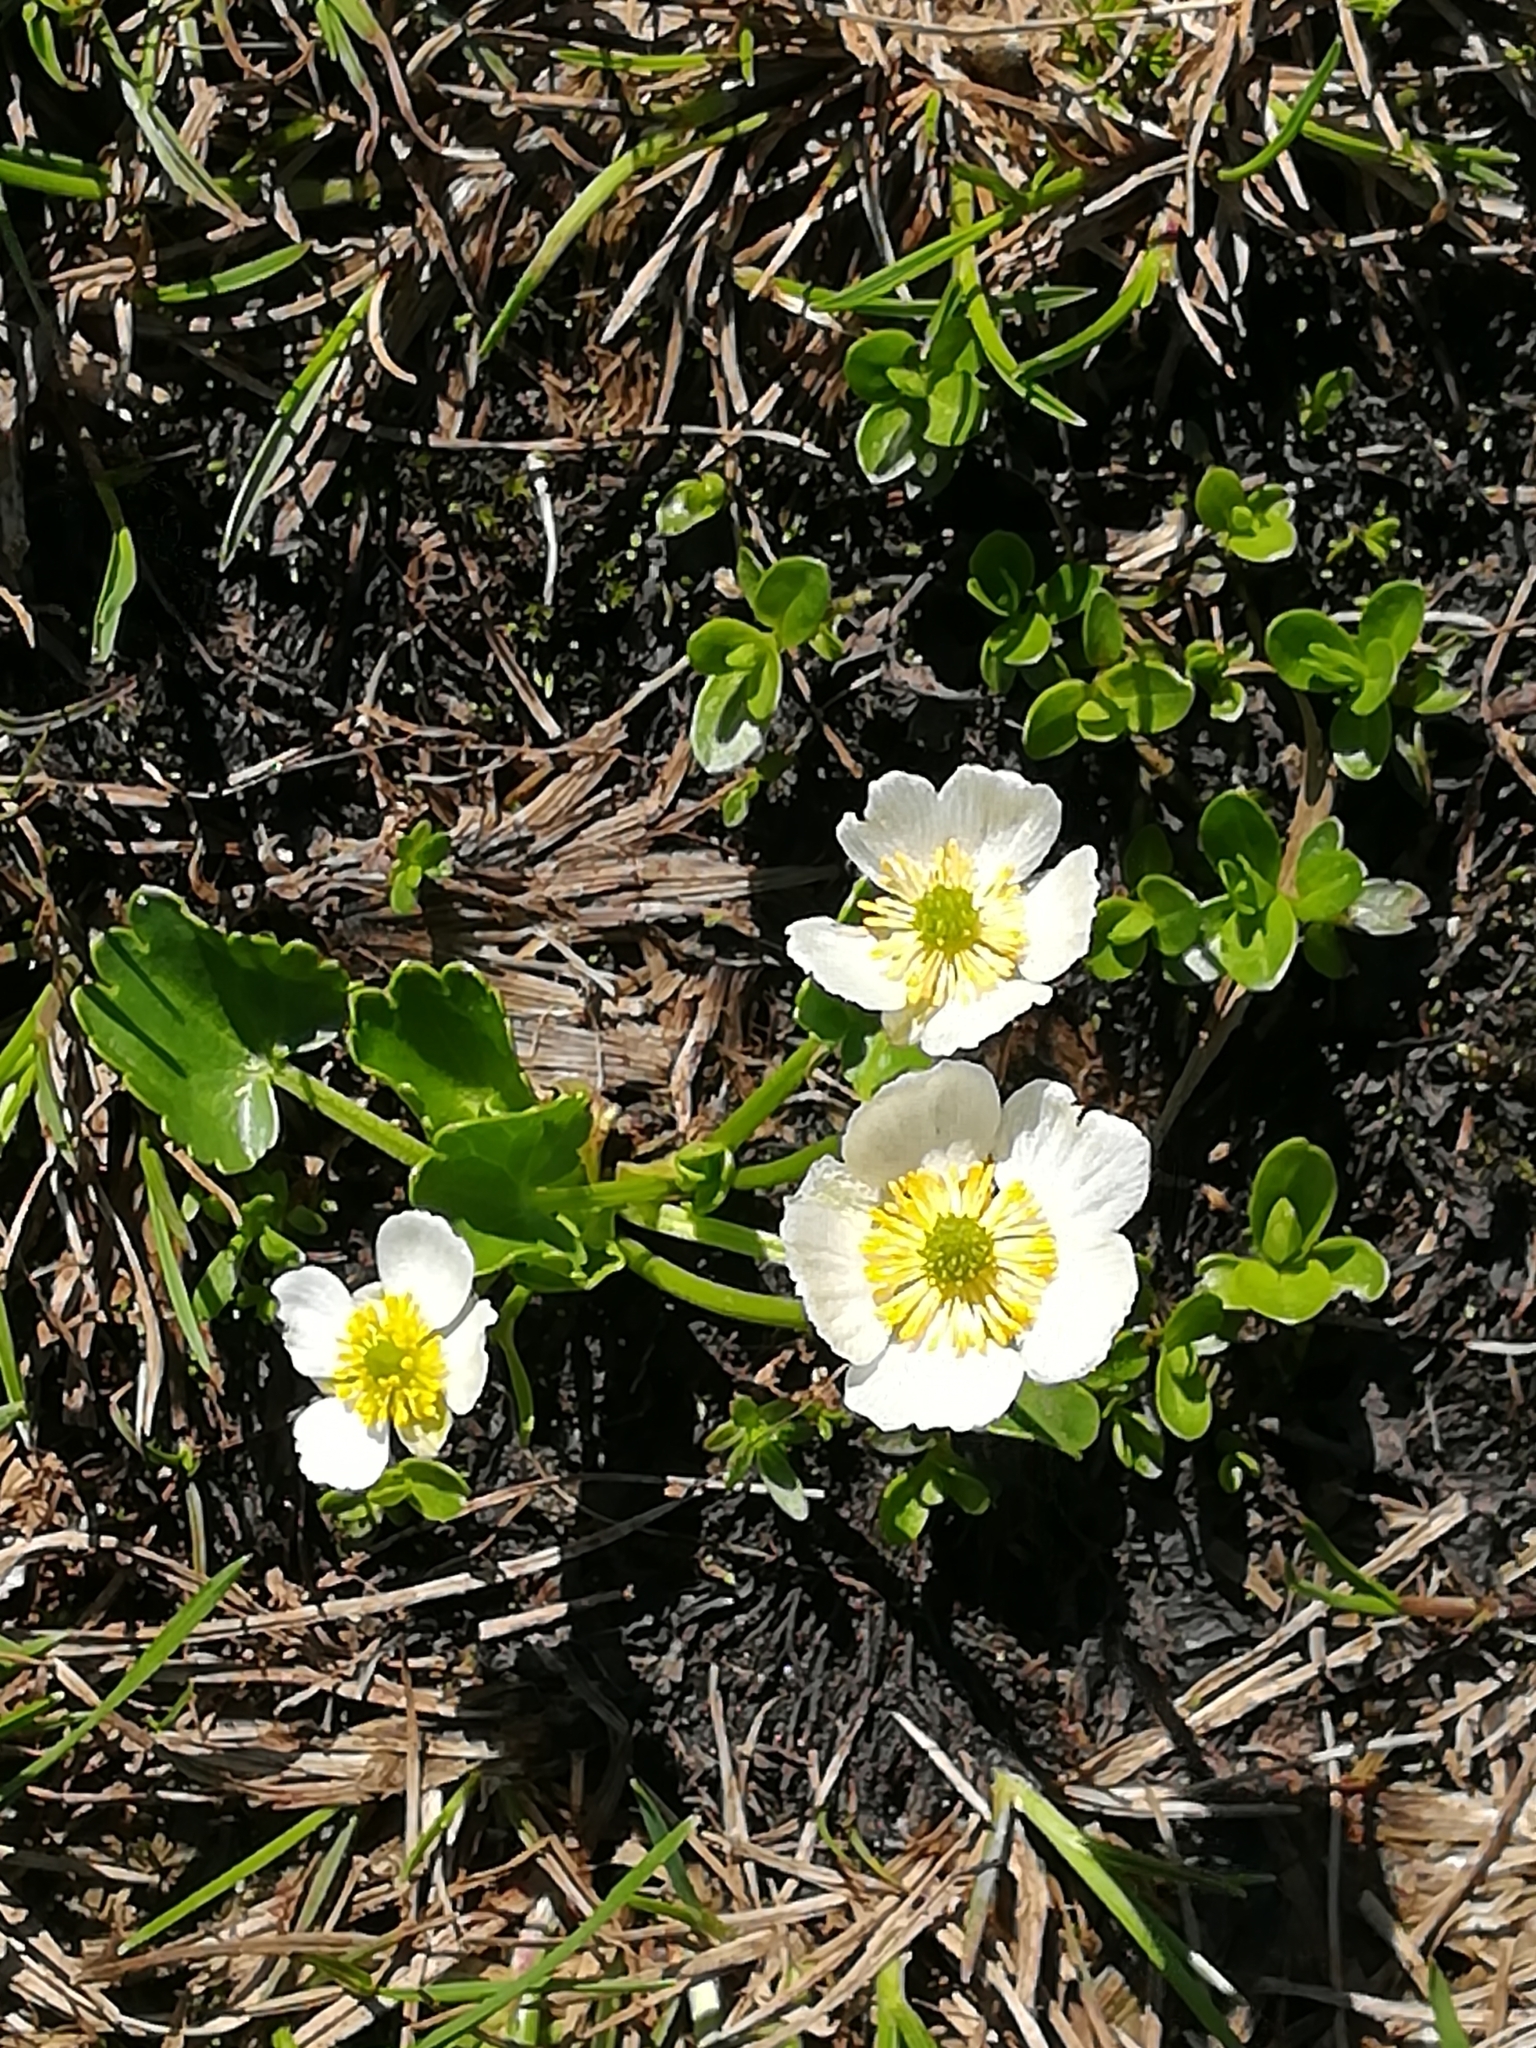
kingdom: Plantae
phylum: Tracheophyta
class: Magnoliopsida
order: Ranunculales
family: Ranunculaceae
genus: Ranunculus
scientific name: Ranunculus crenatus
